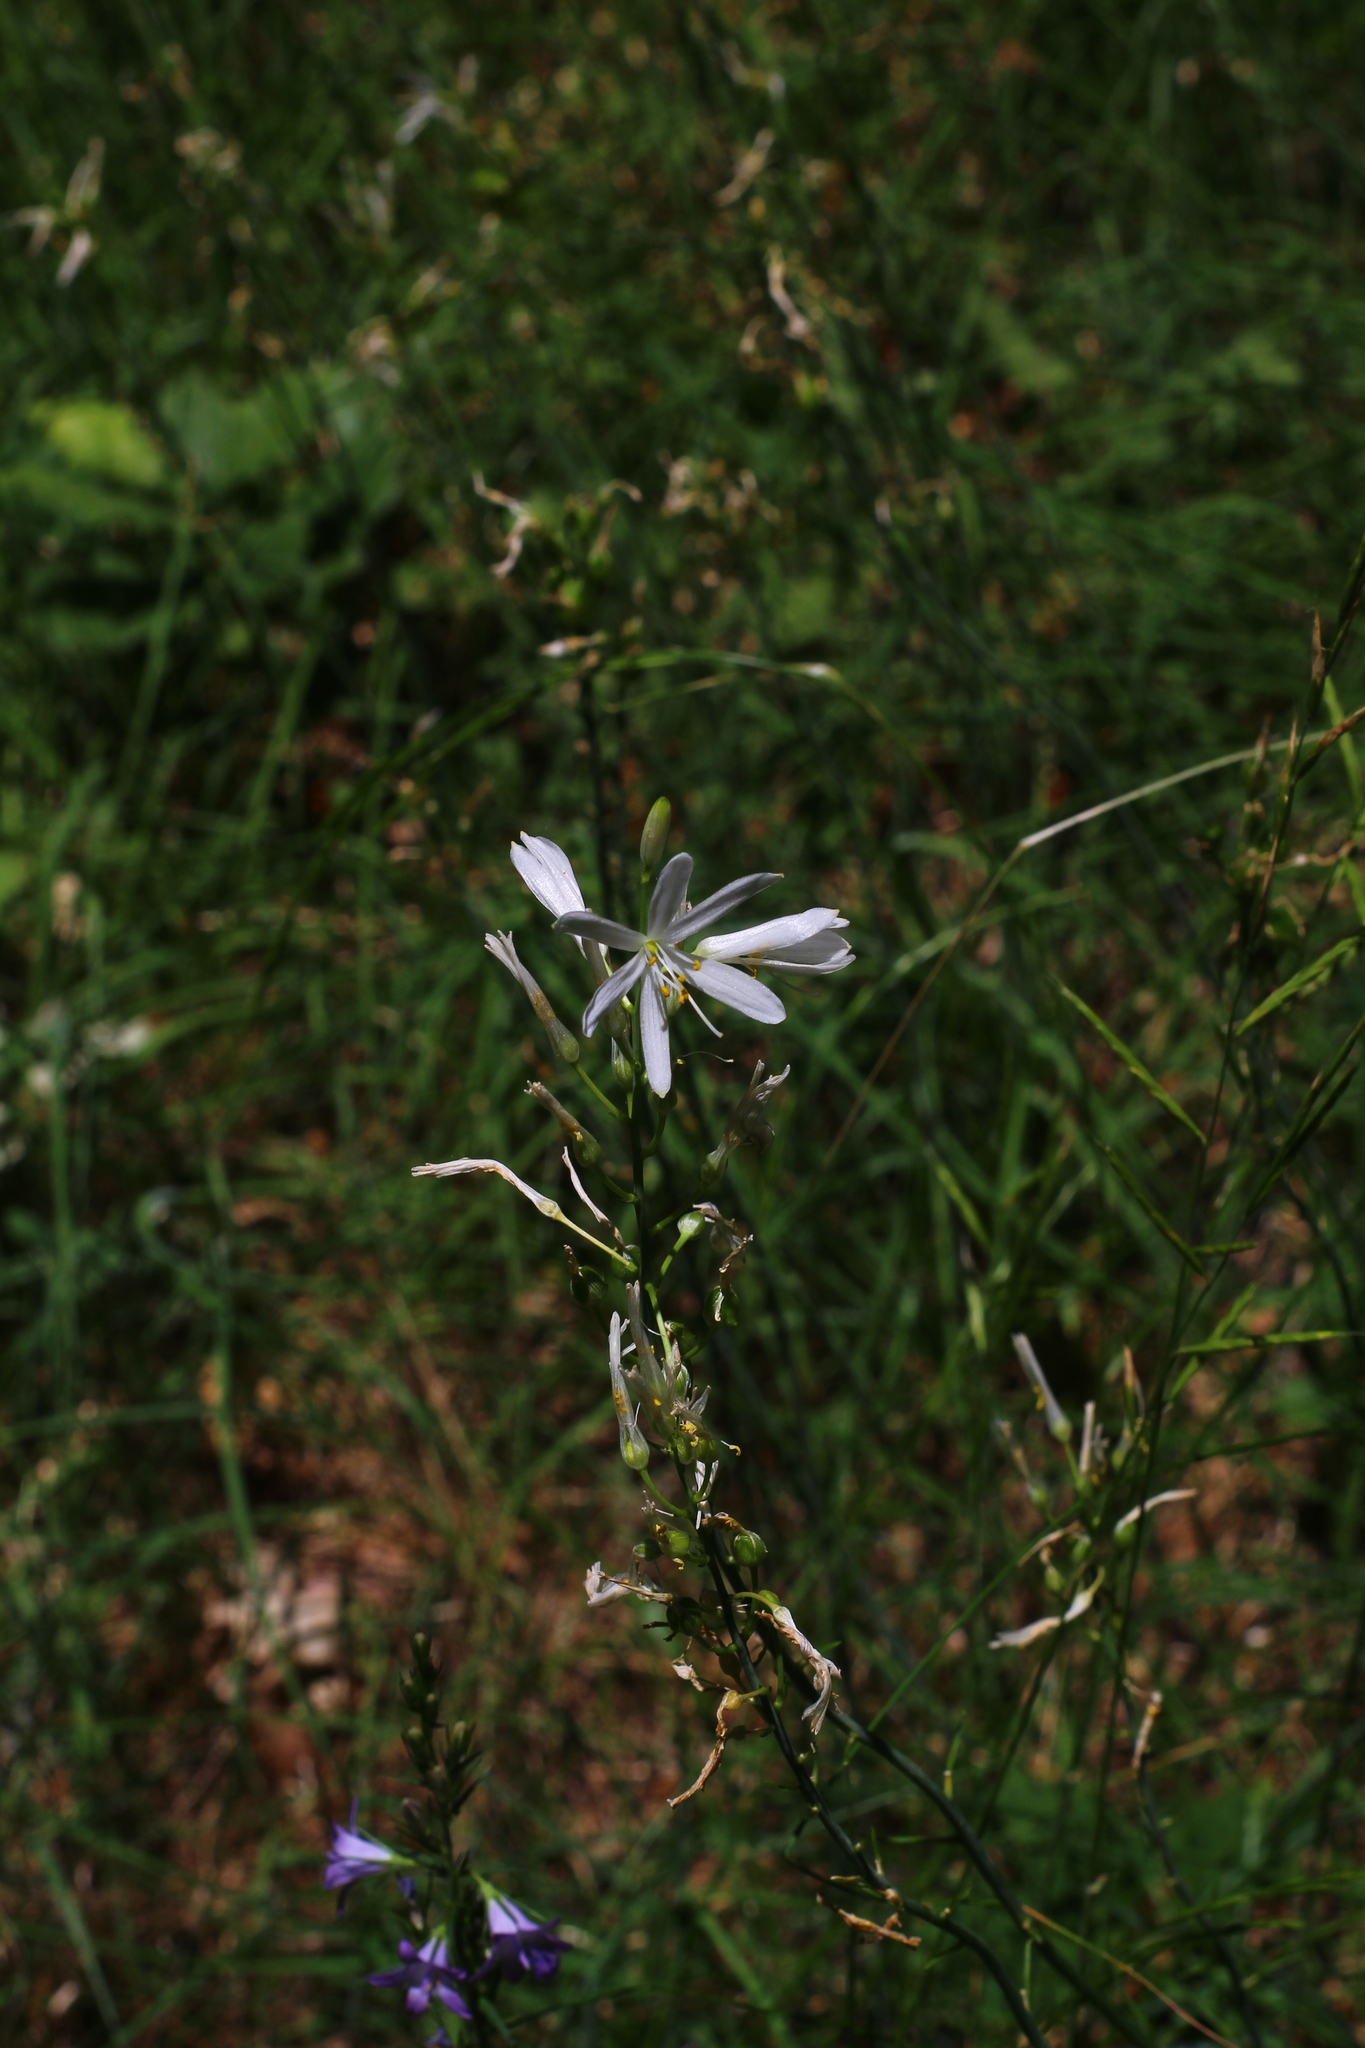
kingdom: Plantae
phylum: Tracheophyta
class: Liliopsida
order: Asparagales
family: Asparagaceae
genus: Anthericum
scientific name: Anthericum liliago
